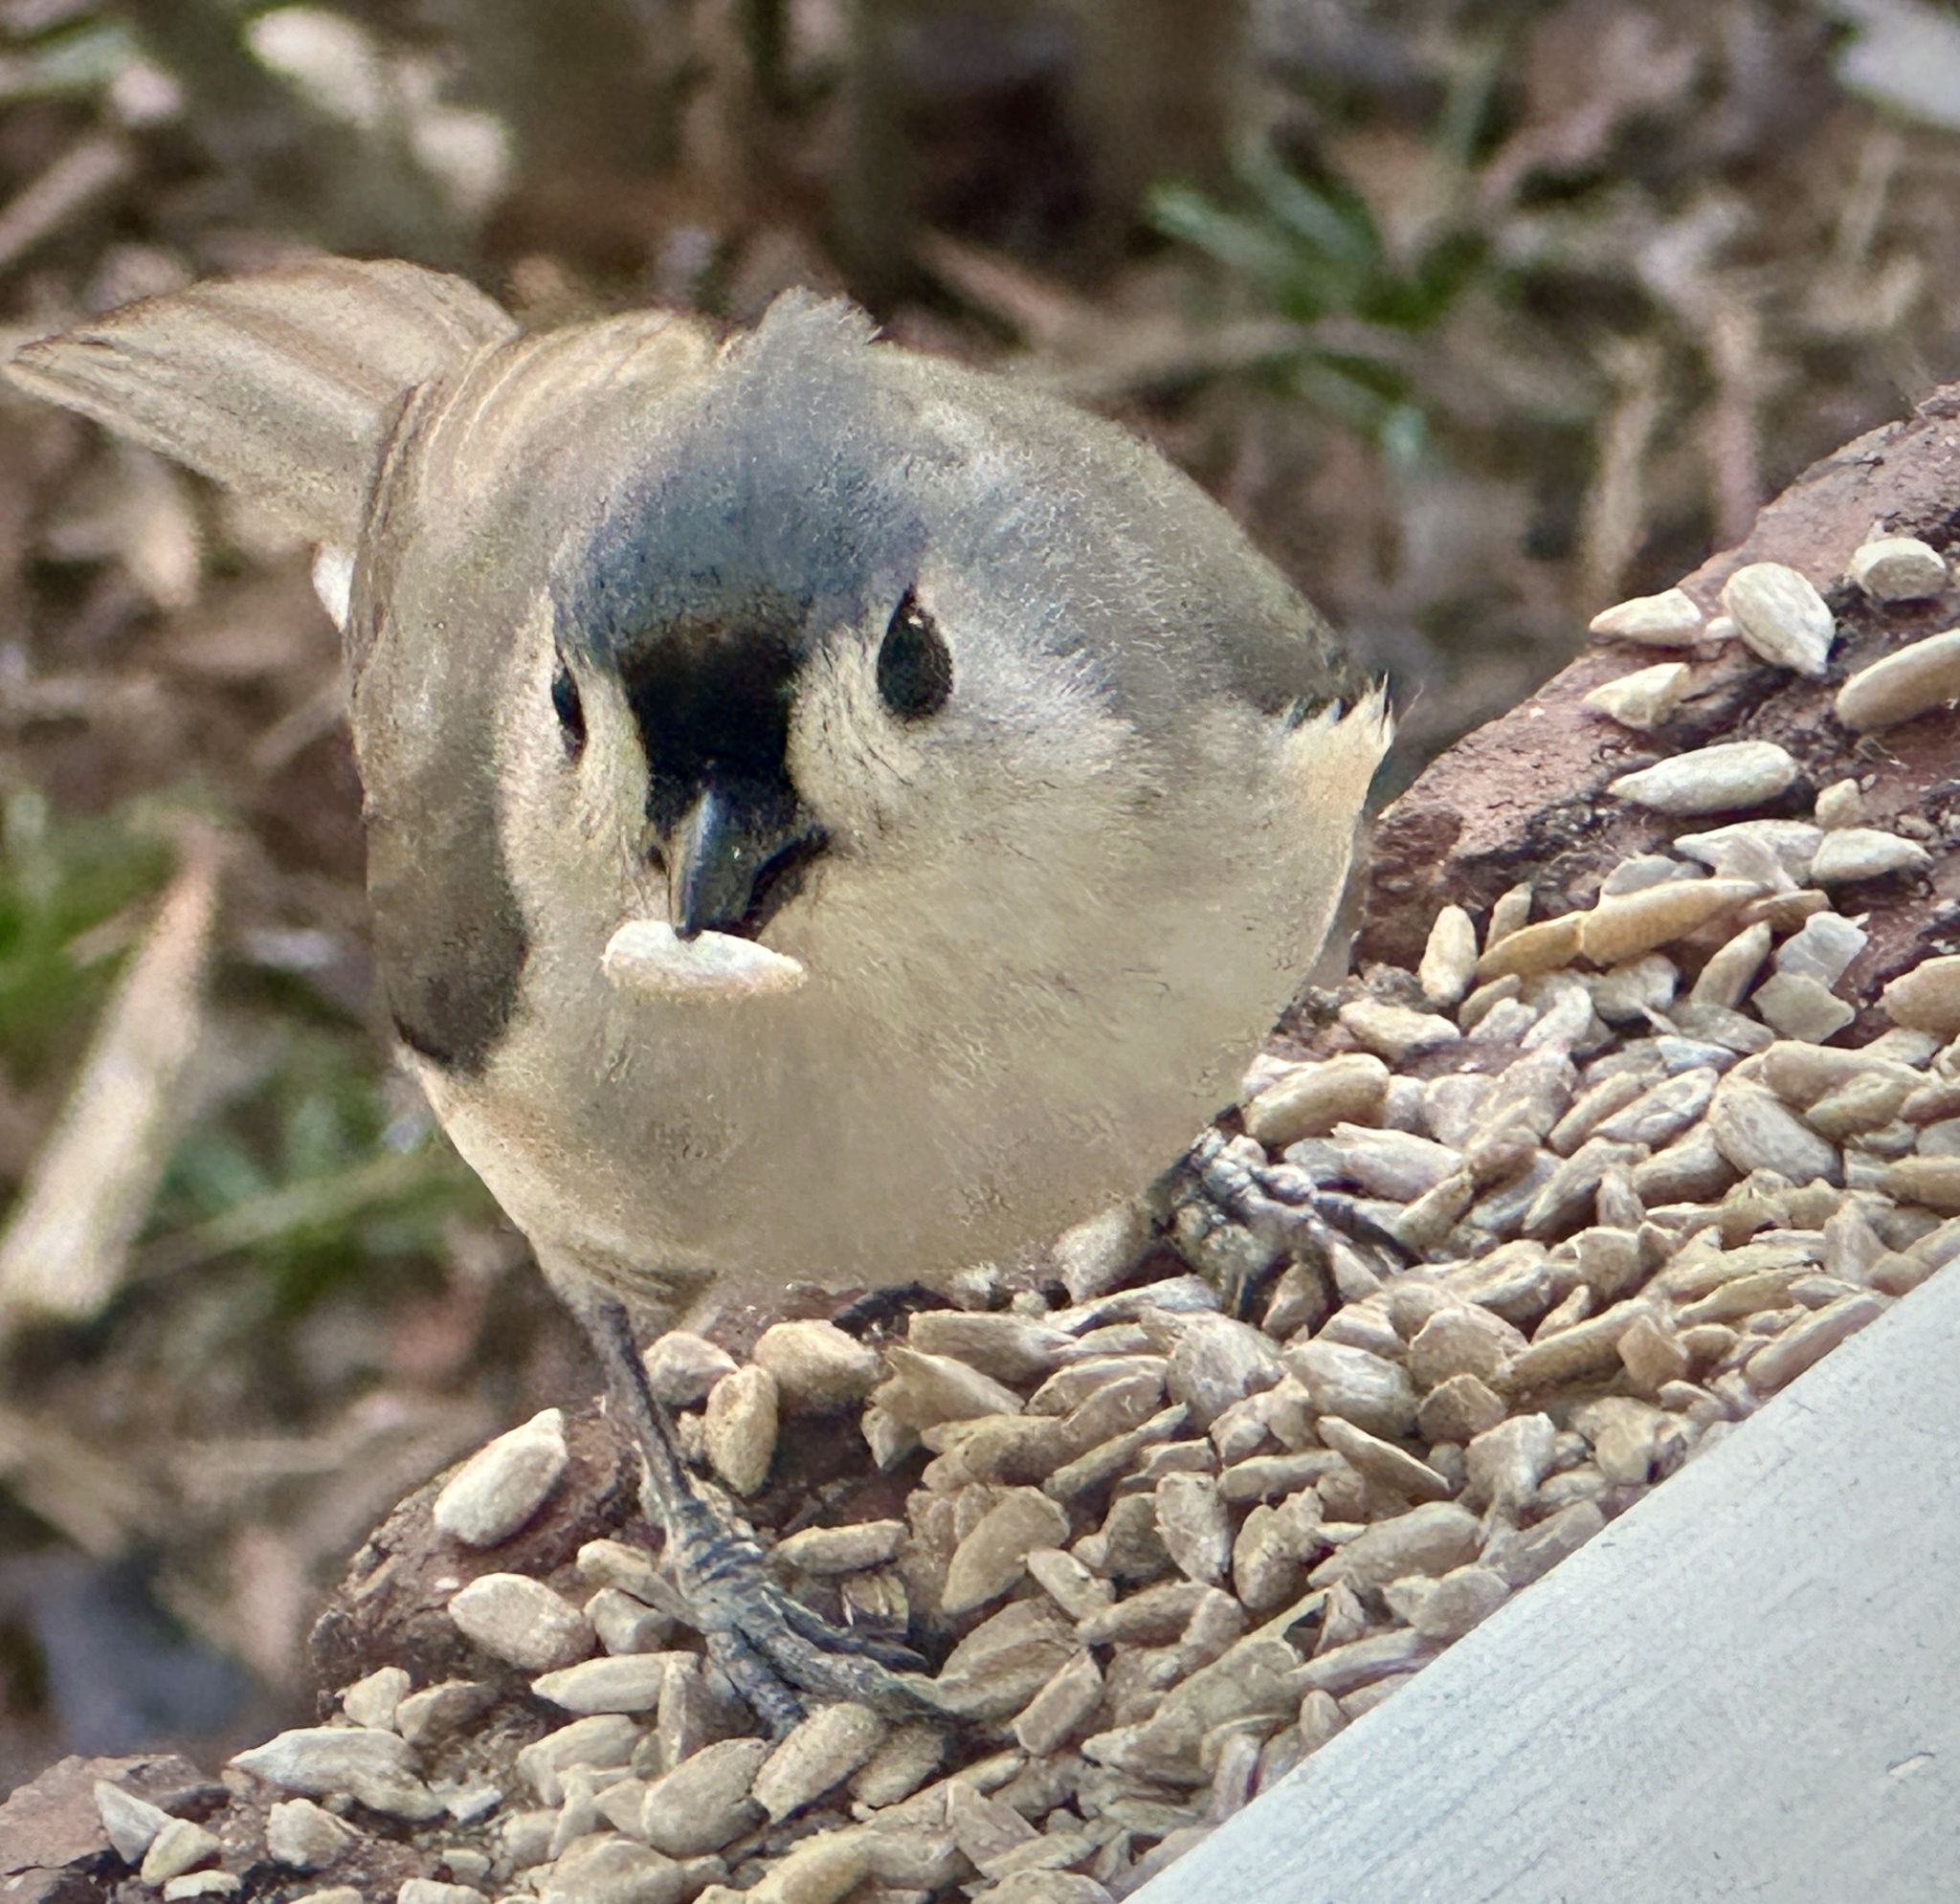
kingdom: Animalia
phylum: Chordata
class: Aves
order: Passeriformes
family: Paridae
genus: Baeolophus
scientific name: Baeolophus bicolor
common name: Tufted titmouse
